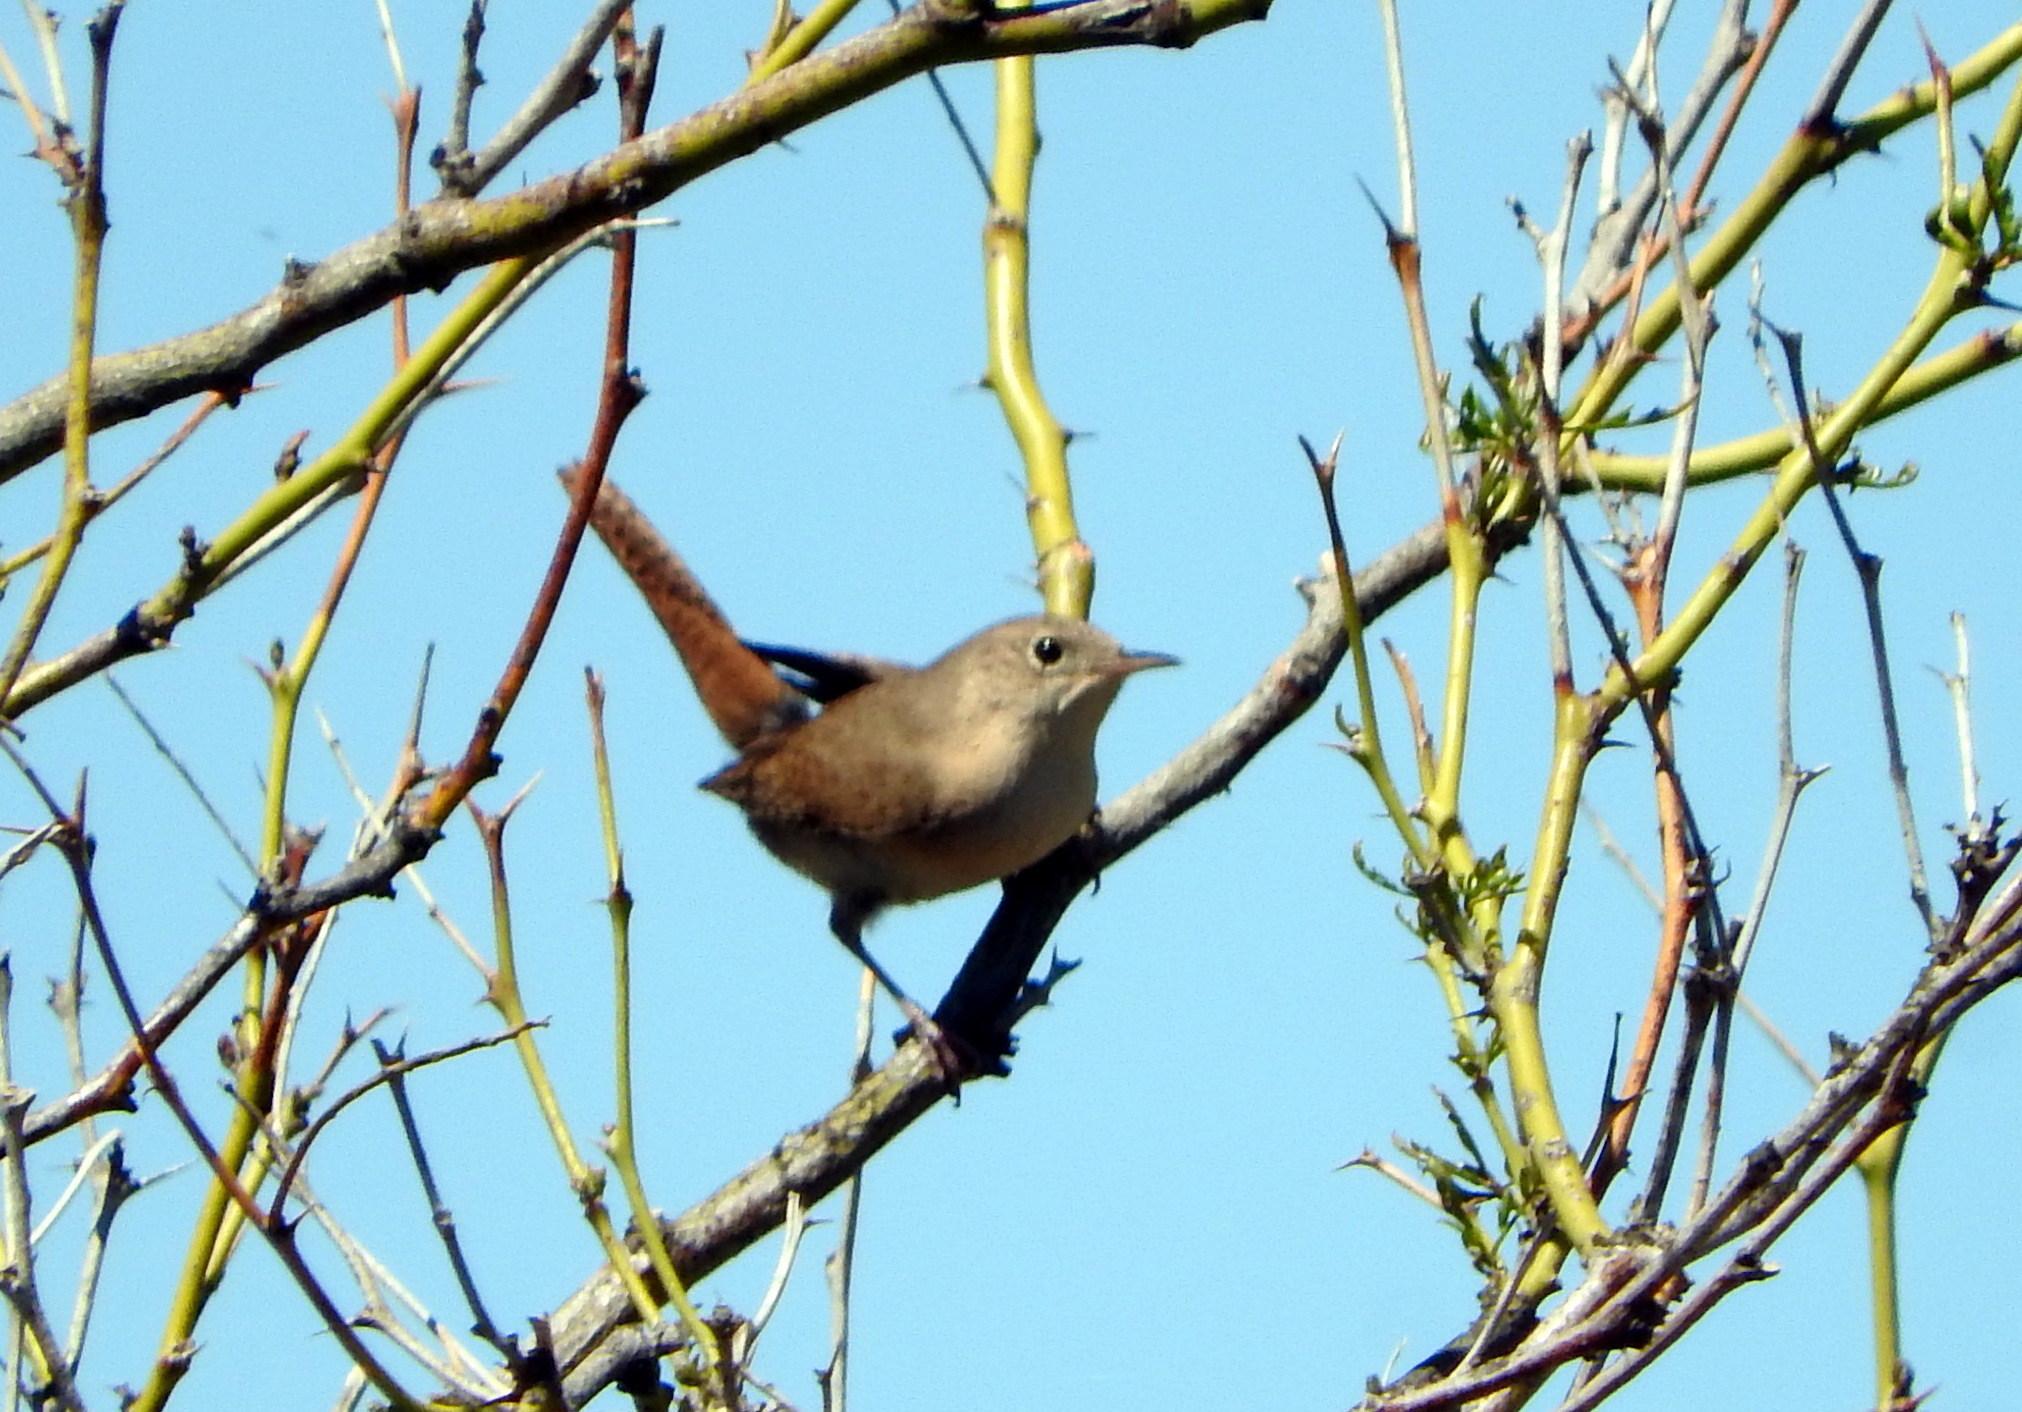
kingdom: Animalia
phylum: Chordata
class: Aves
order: Passeriformes
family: Troglodytidae
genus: Troglodytes
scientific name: Troglodytes aedon
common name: House wren
